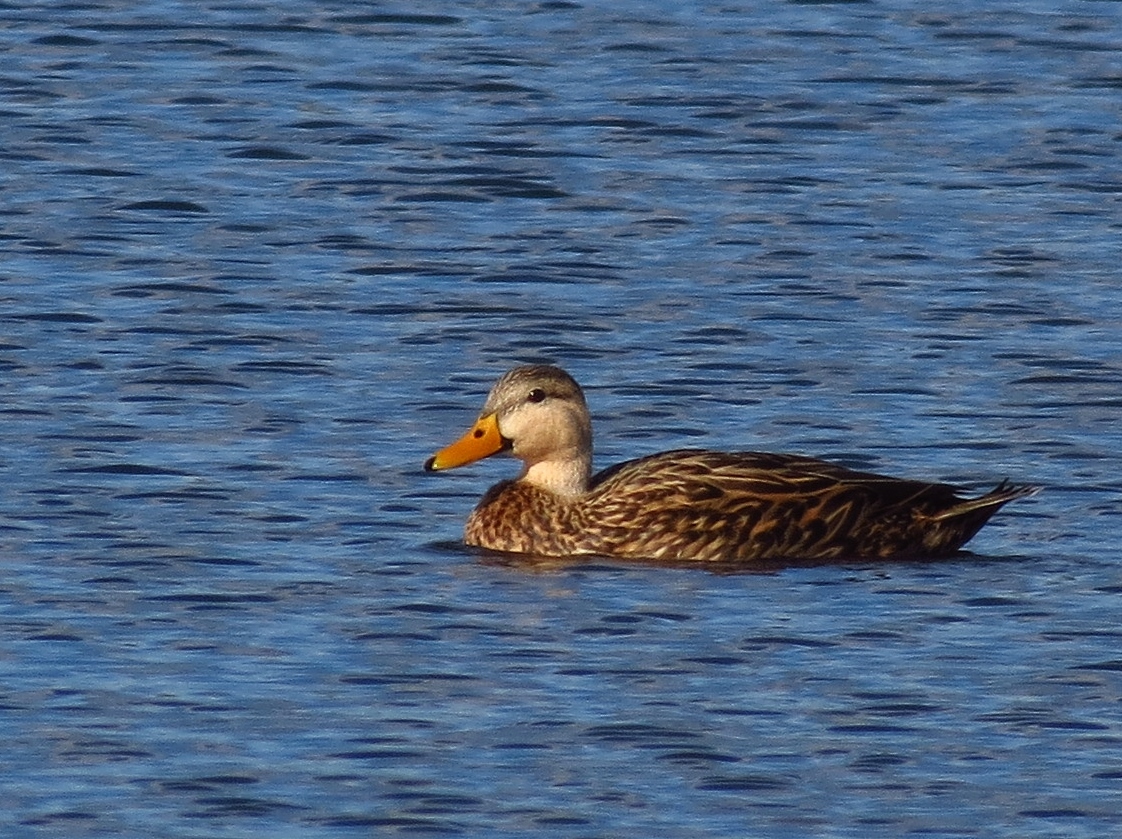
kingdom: Animalia
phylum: Chordata
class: Aves
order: Anseriformes
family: Anatidae
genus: Anas
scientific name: Anas
